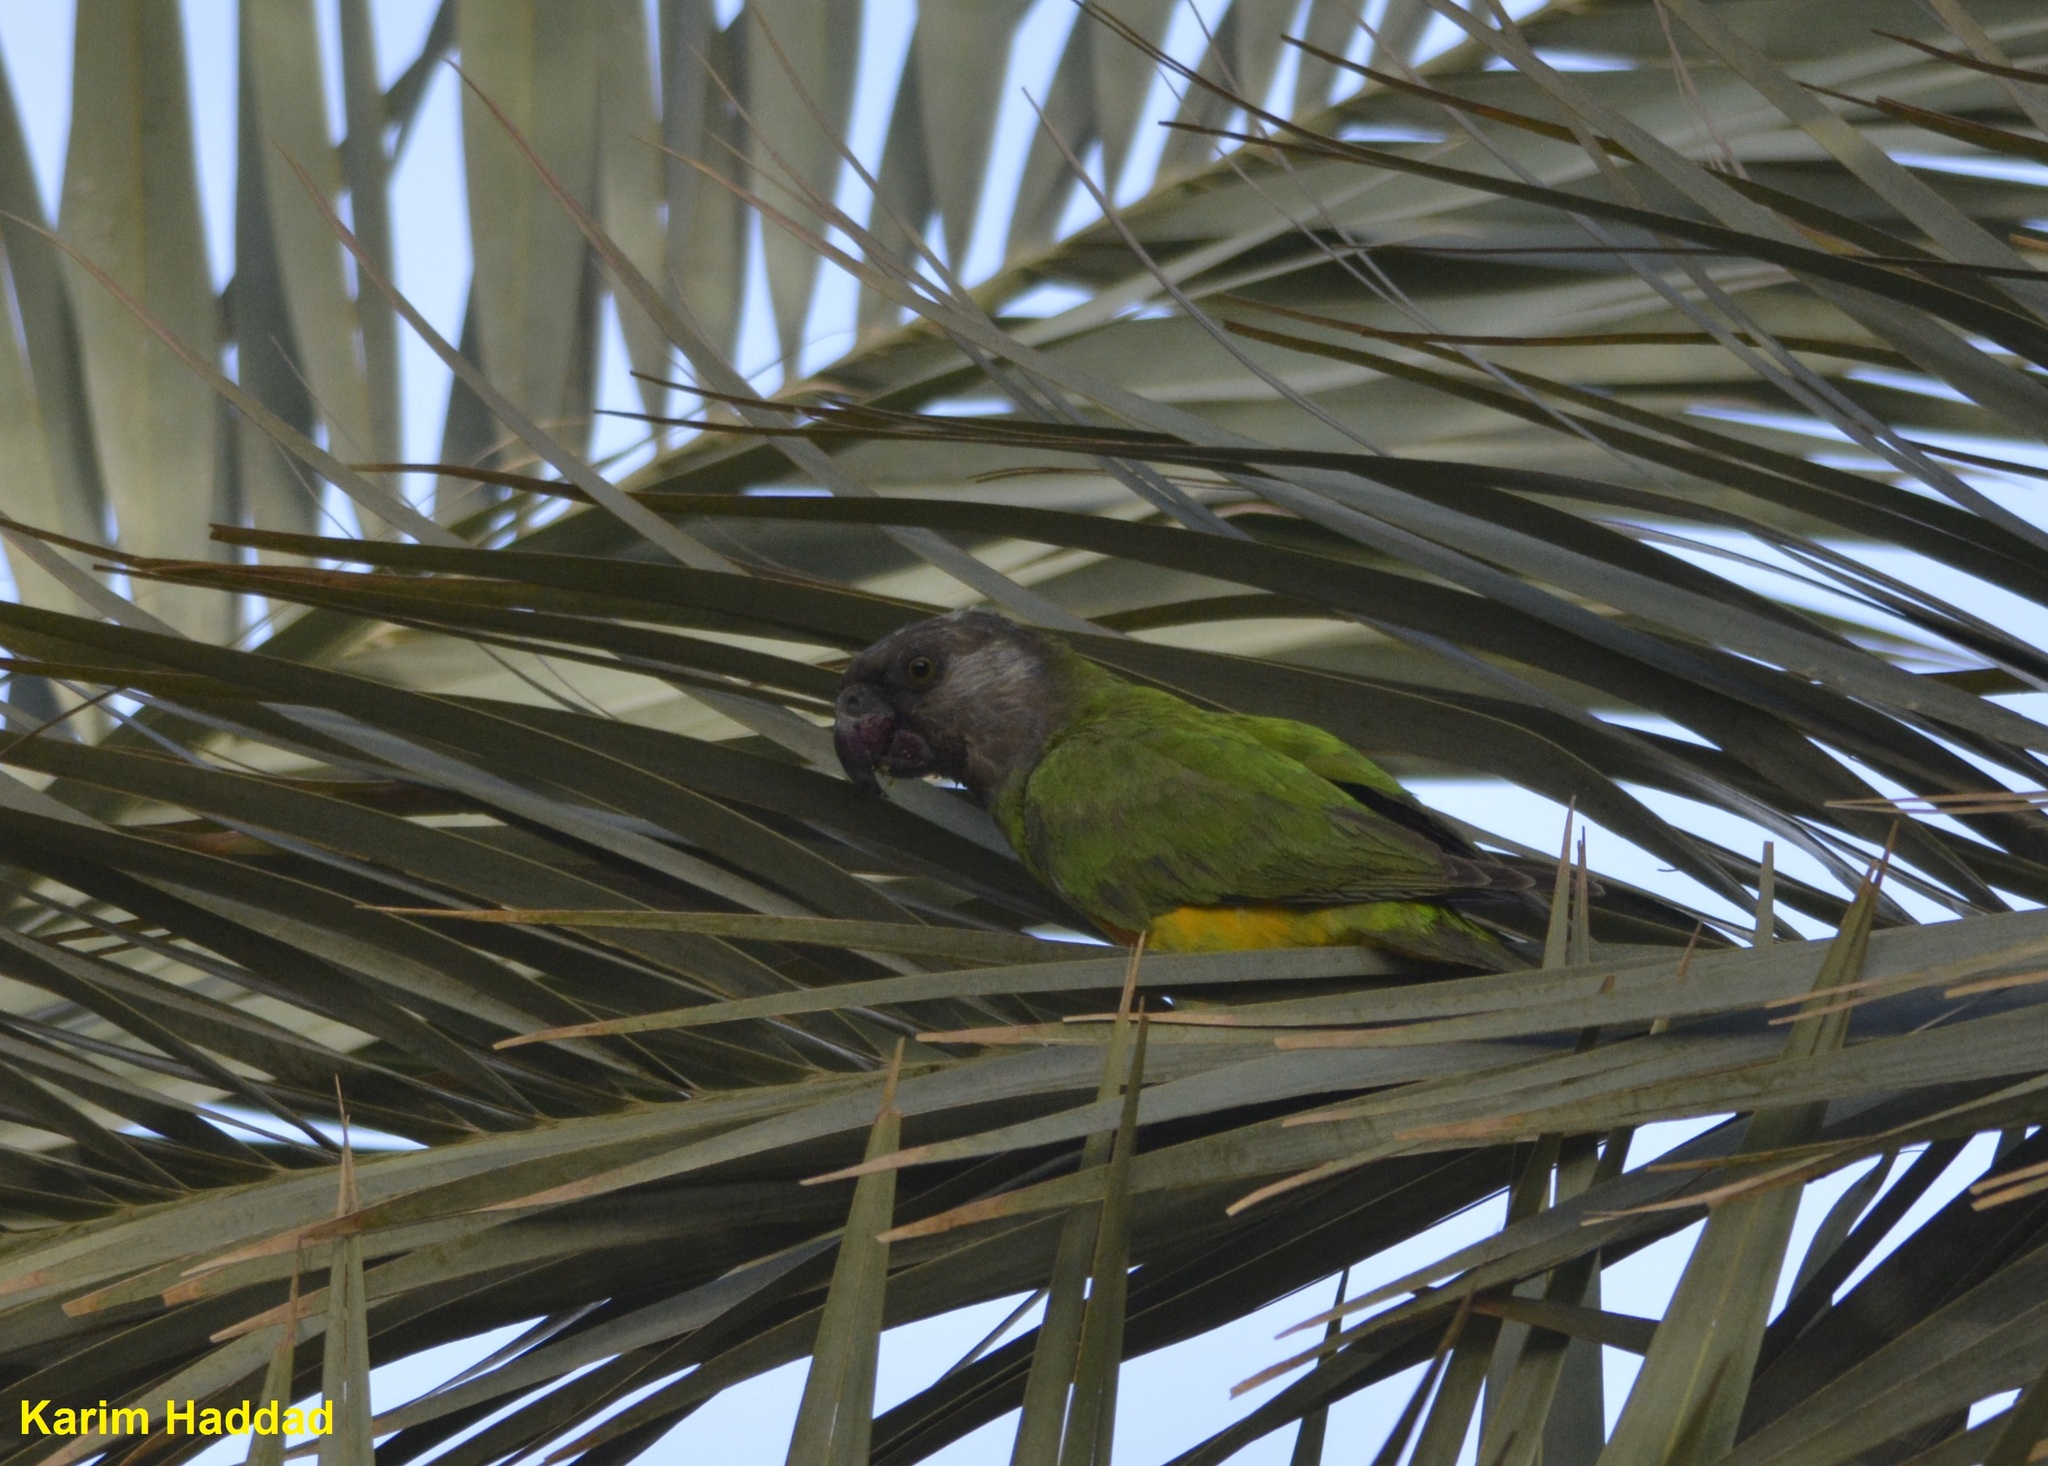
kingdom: Animalia
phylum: Chordata
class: Aves
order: Psittaciformes
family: Psittacidae
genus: Poicephalus
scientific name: Poicephalus senegalus
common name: Senegal parrot
